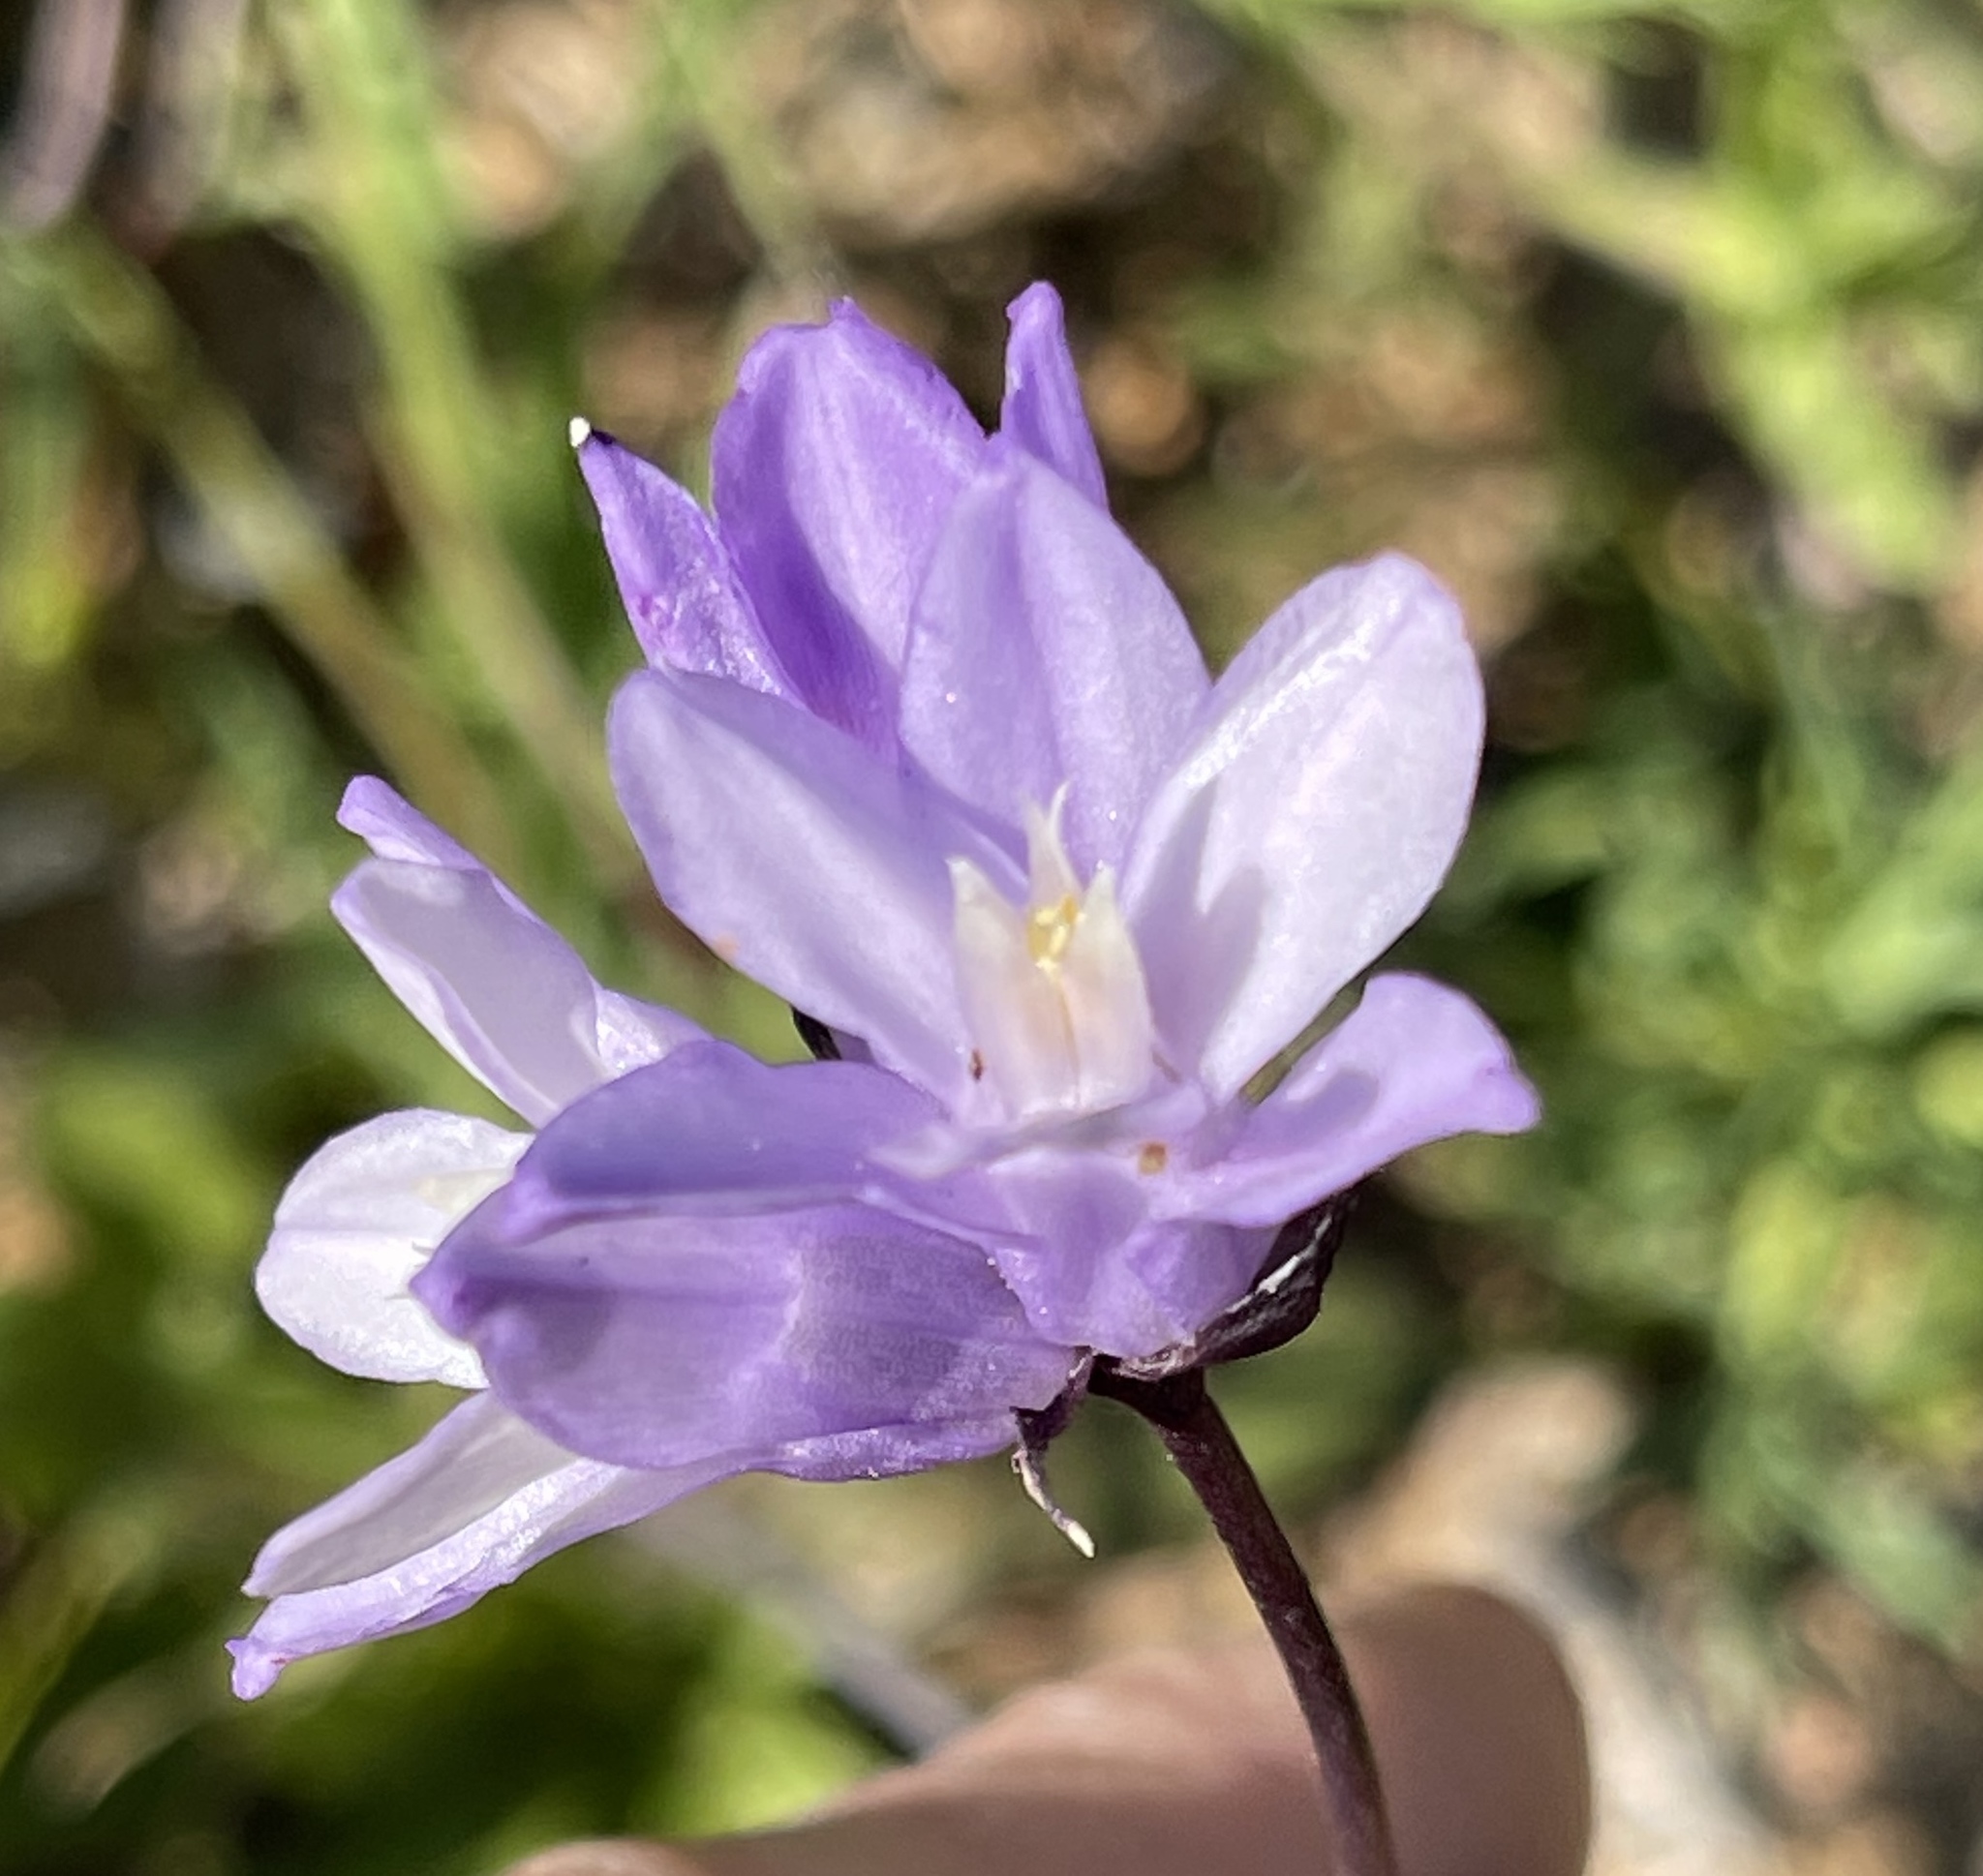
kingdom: Plantae
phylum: Tracheophyta
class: Liliopsida
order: Asparagales
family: Asparagaceae
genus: Dipterostemon
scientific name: Dipterostemon capitatus
